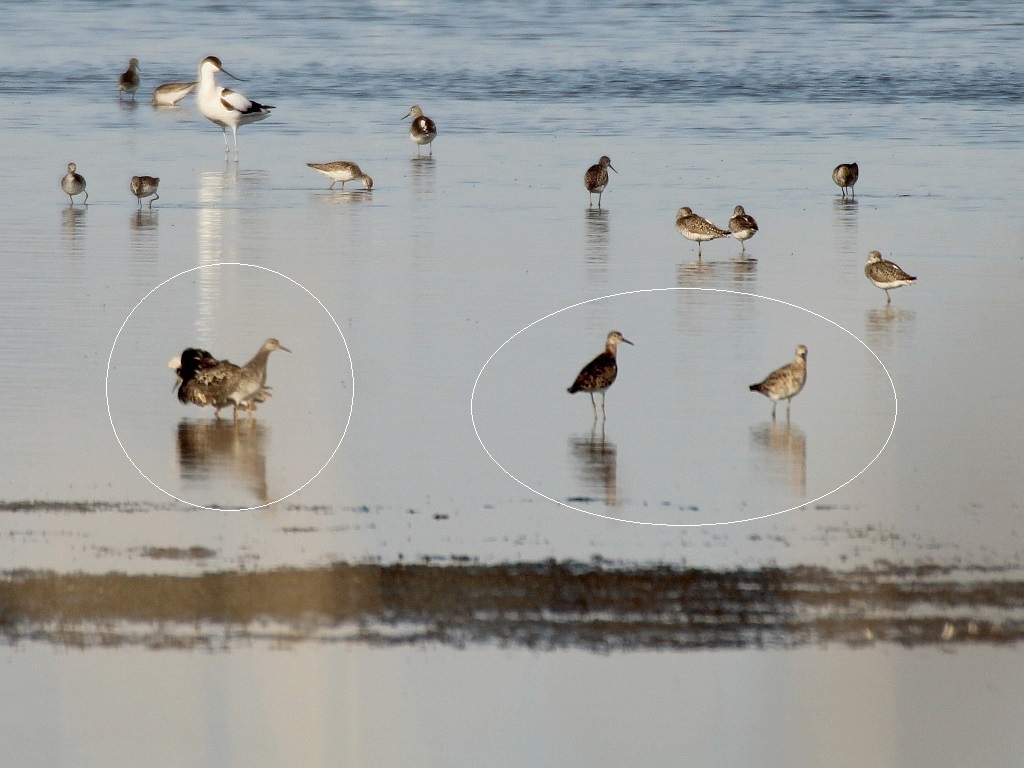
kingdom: Animalia
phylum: Chordata
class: Aves
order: Charadriiformes
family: Scolopacidae
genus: Calidris
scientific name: Calidris pugnax
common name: Ruff
